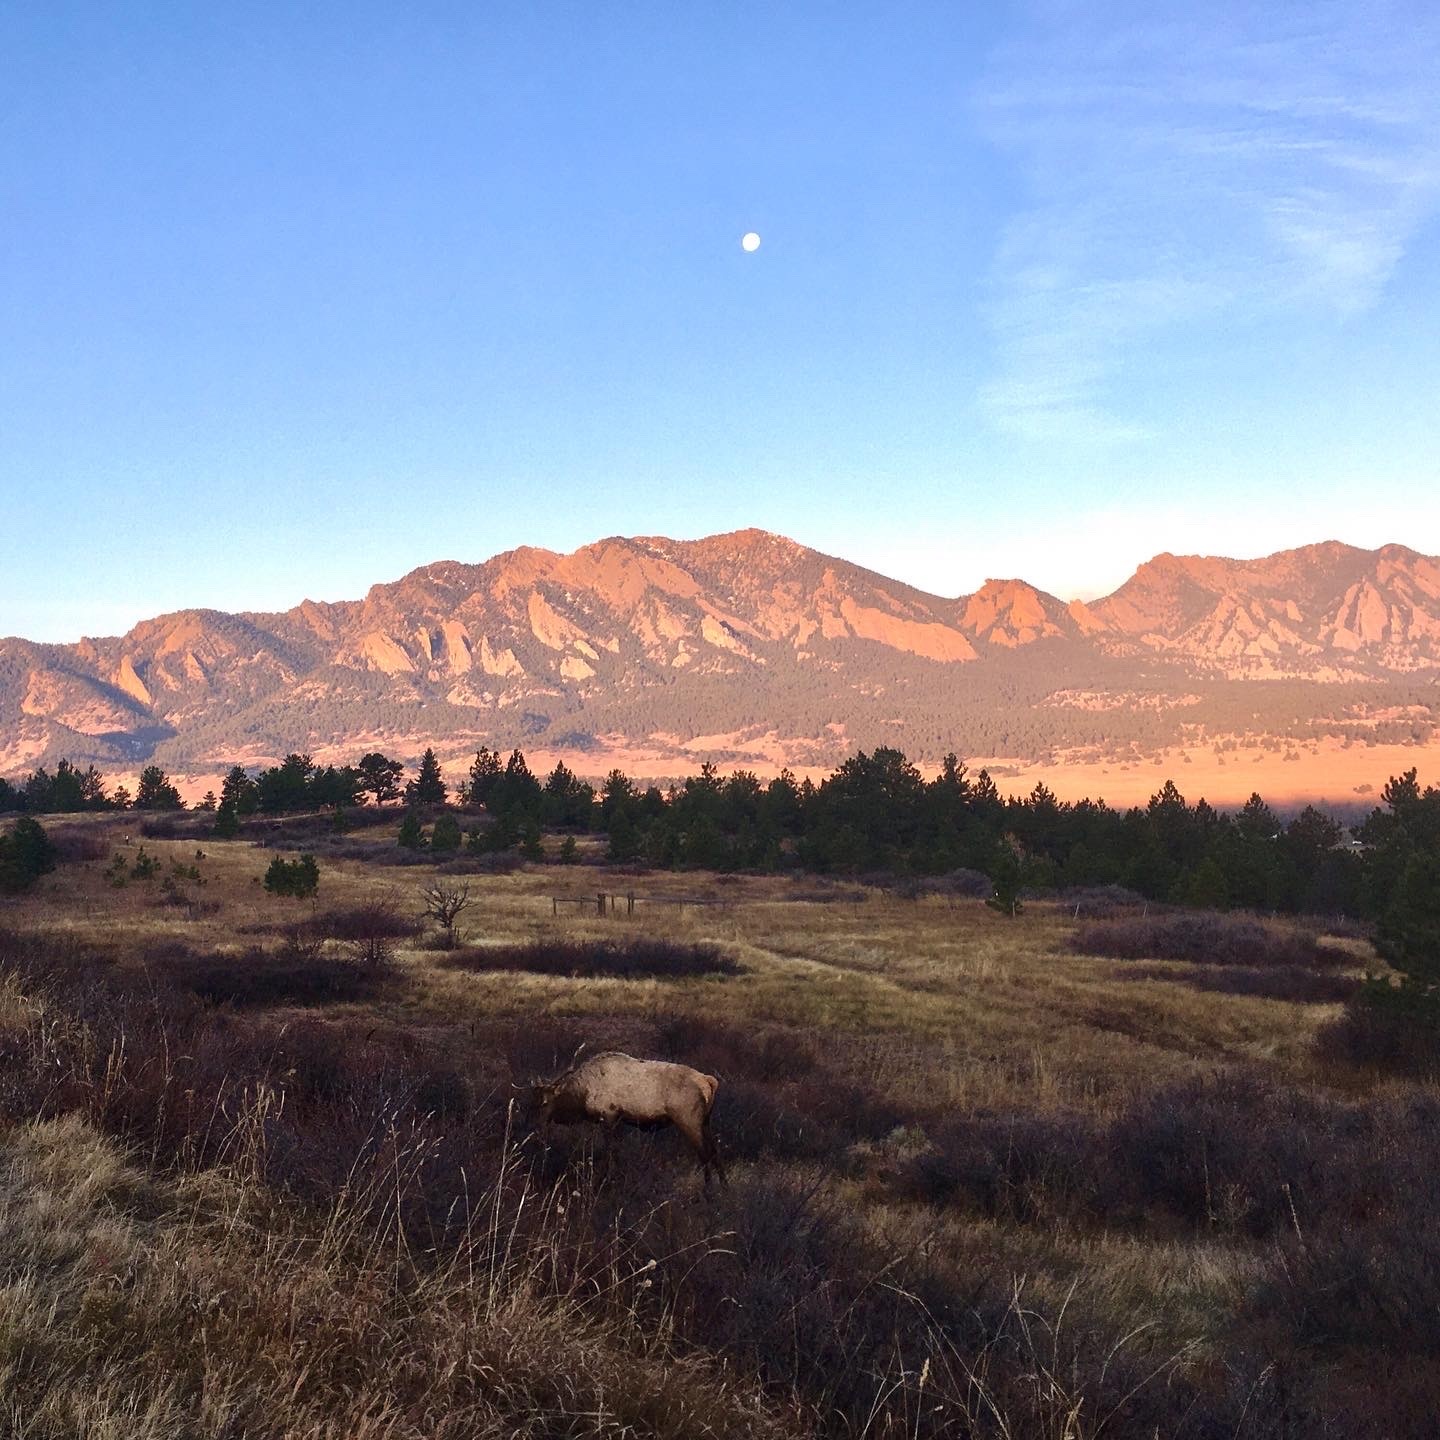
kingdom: Animalia
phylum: Chordata
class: Mammalia
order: Artiodactyla
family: Cervidae
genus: Cervus
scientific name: Cervus elaphus
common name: Red deer
